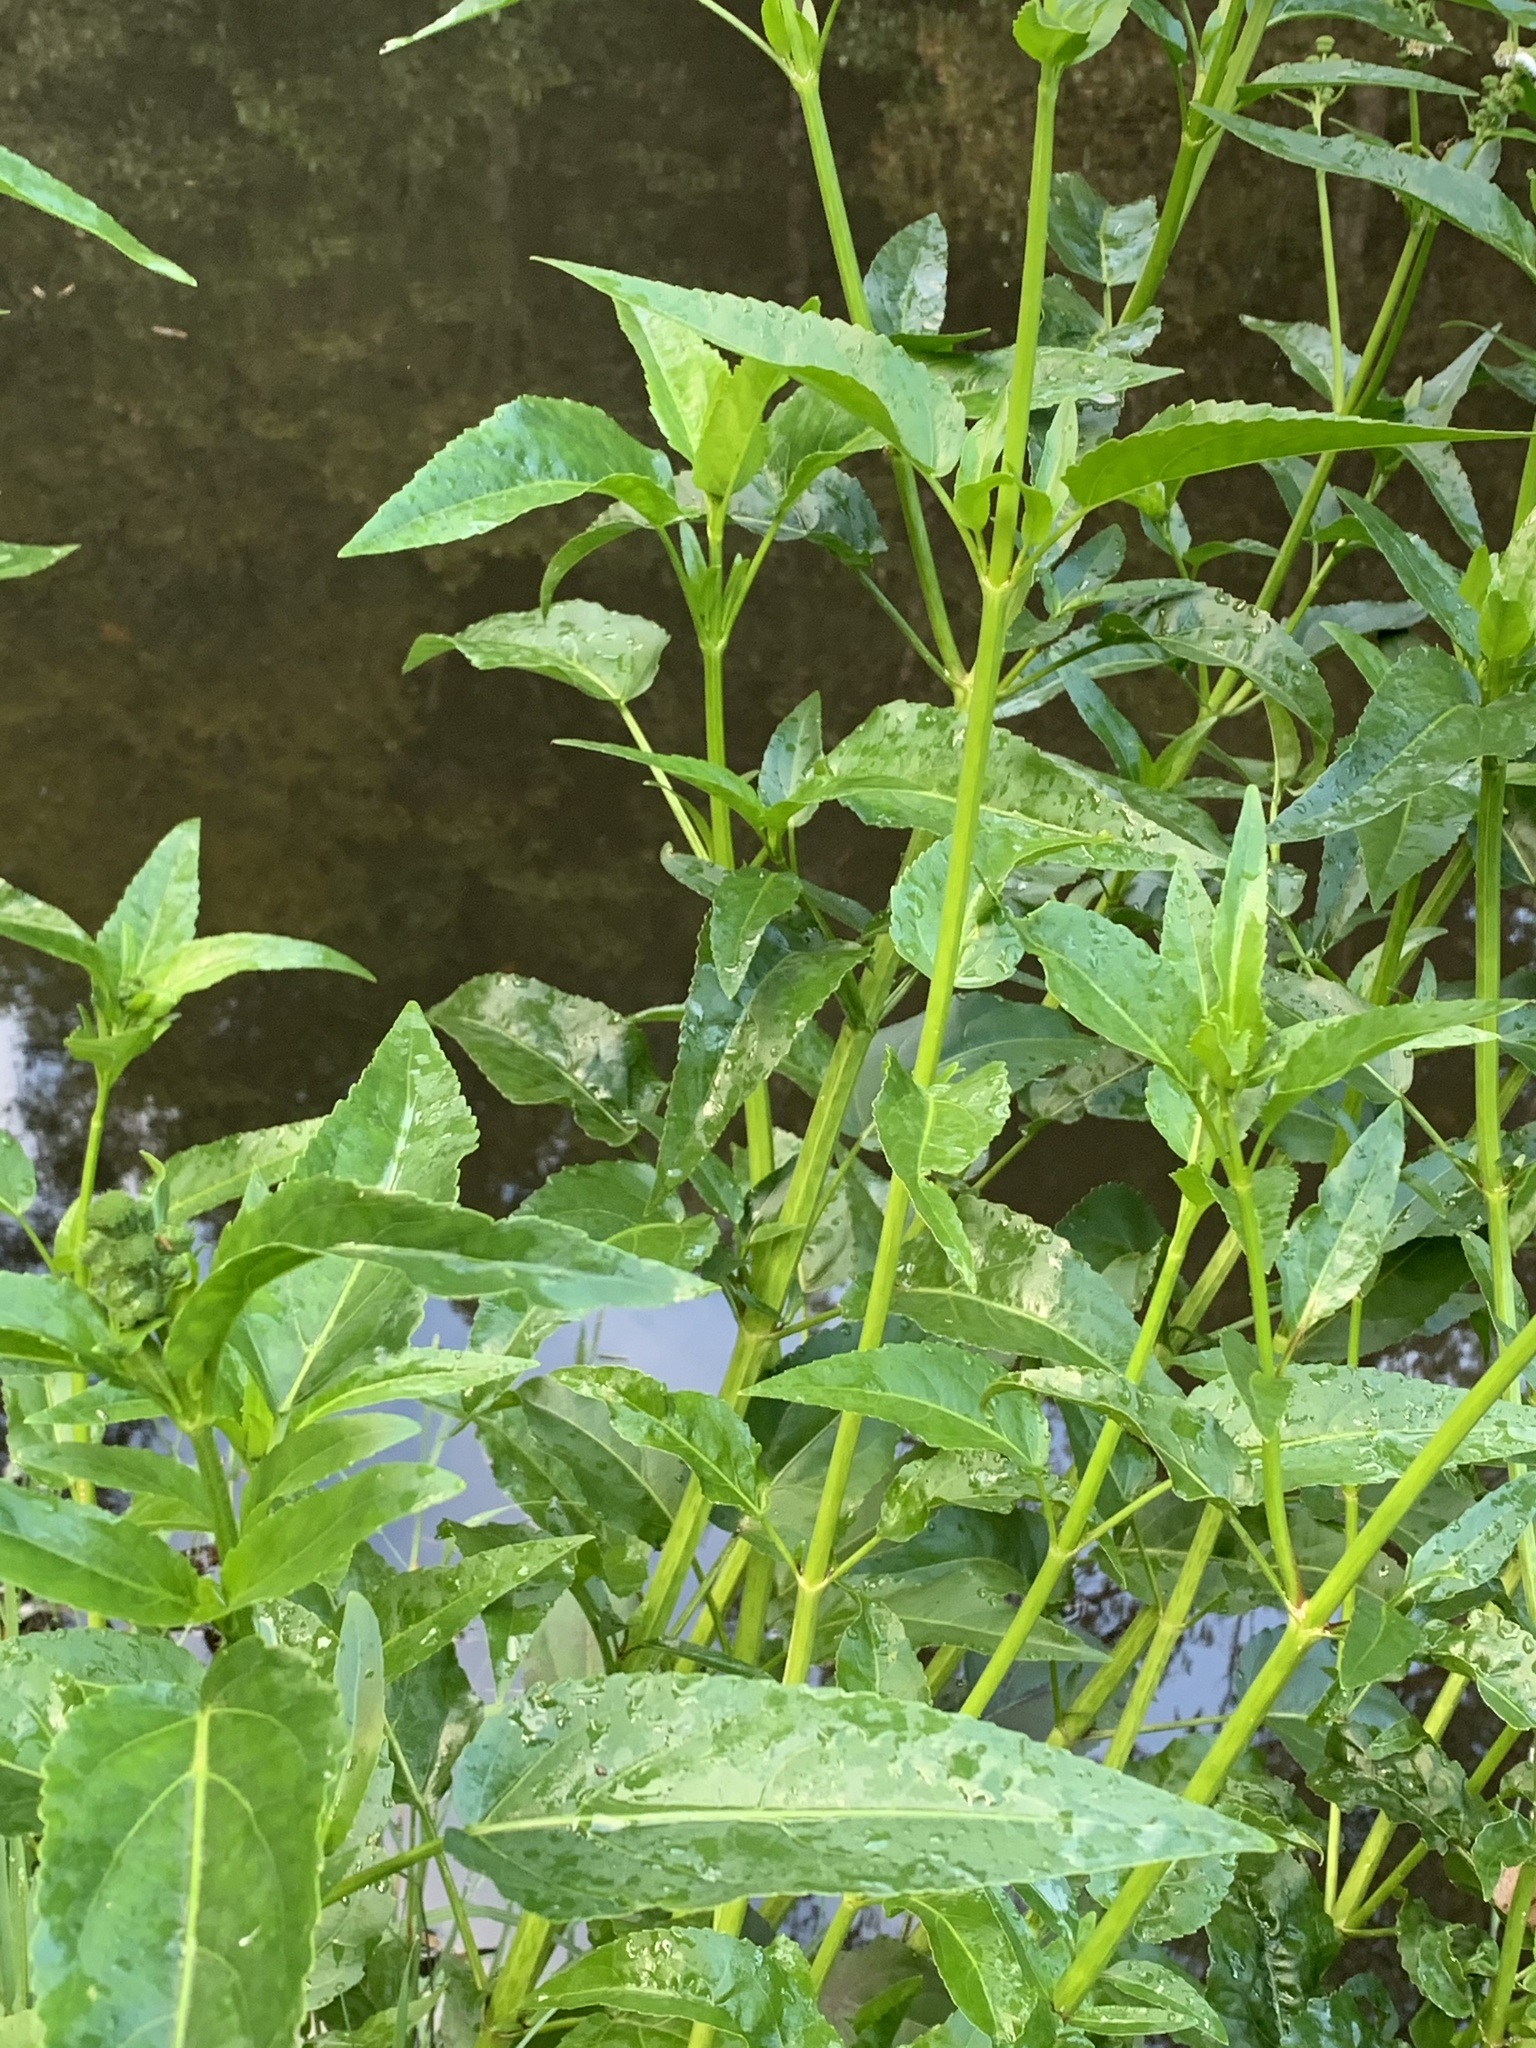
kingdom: Plantae
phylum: Tracheophyta
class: Magnoliopsida
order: Asterales
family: Asteraceae
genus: Gymnocoronis
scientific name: Gymnocoronis spilanthoides
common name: Senegal teaplant
